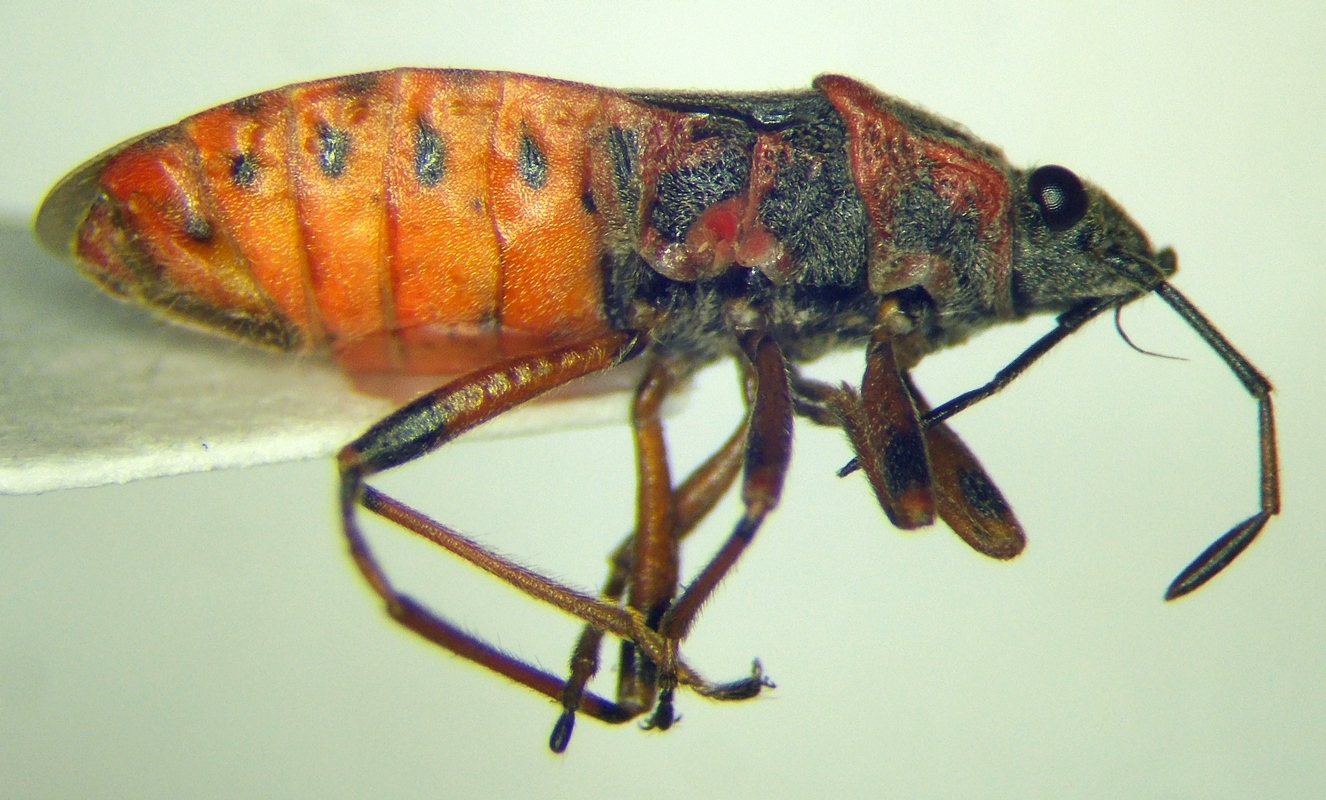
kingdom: Animalia
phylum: Arthropoda
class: Insecta
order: Hemiptera
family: Lygaeidae
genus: Arocatus
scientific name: Arocatus melanocephalus
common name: Lygaeid bug
